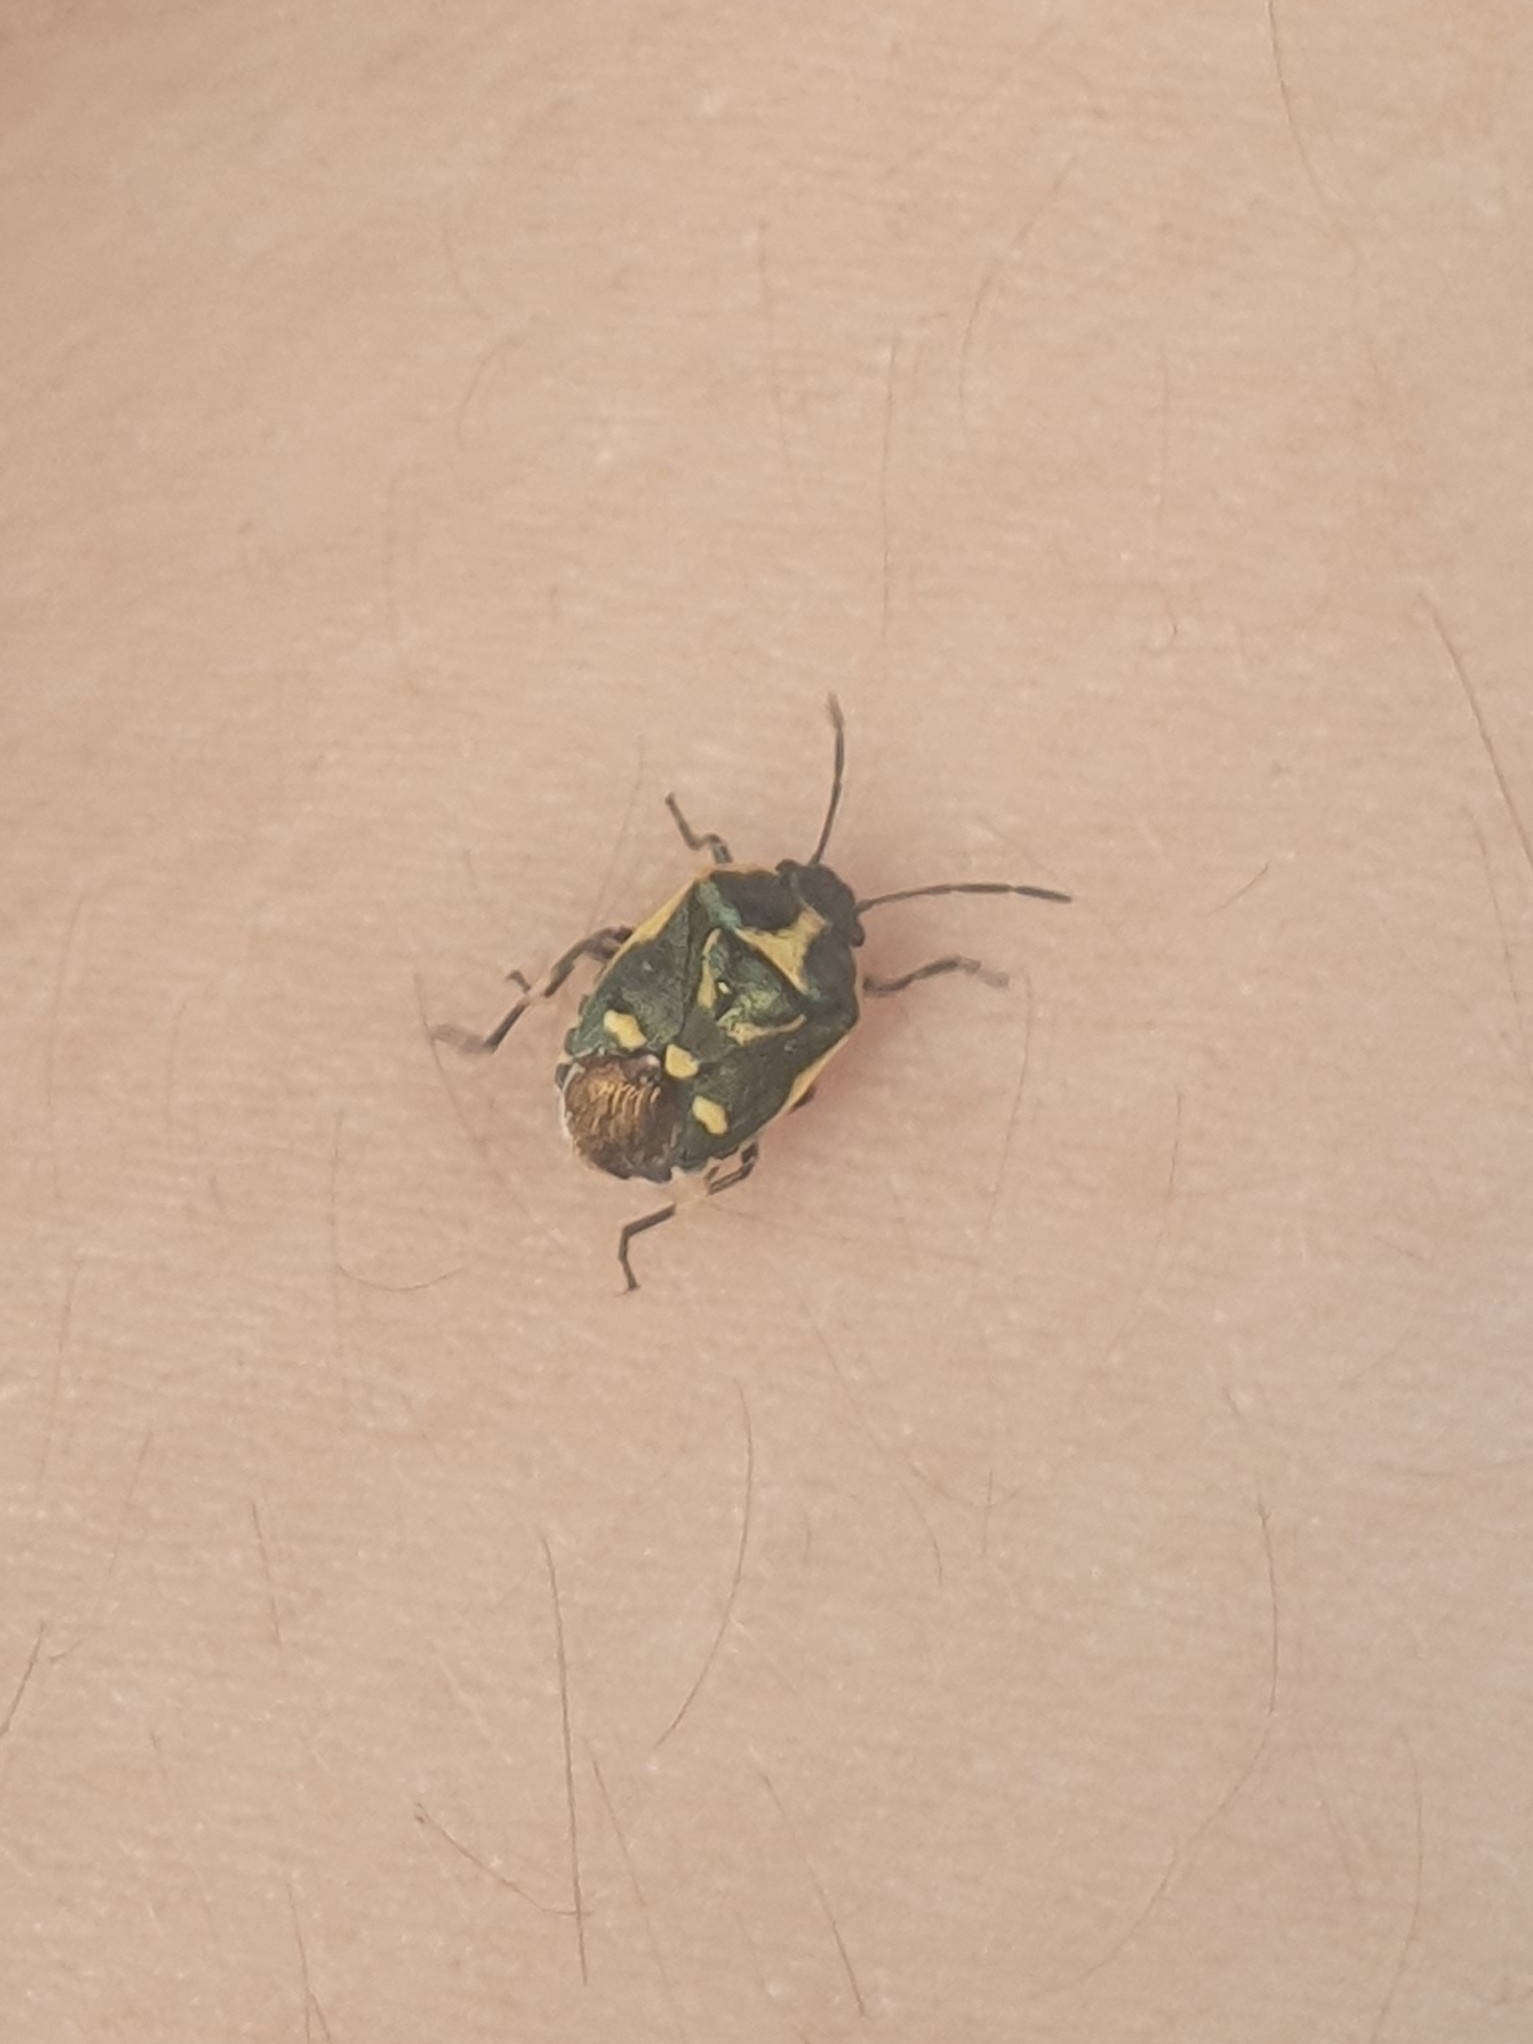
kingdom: Animalia
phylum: Arthropoda
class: Insecta
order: Hemiptera
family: Pentatomidae
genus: Eurydema
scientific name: Eurydema oleracea
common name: Cabbage bug
